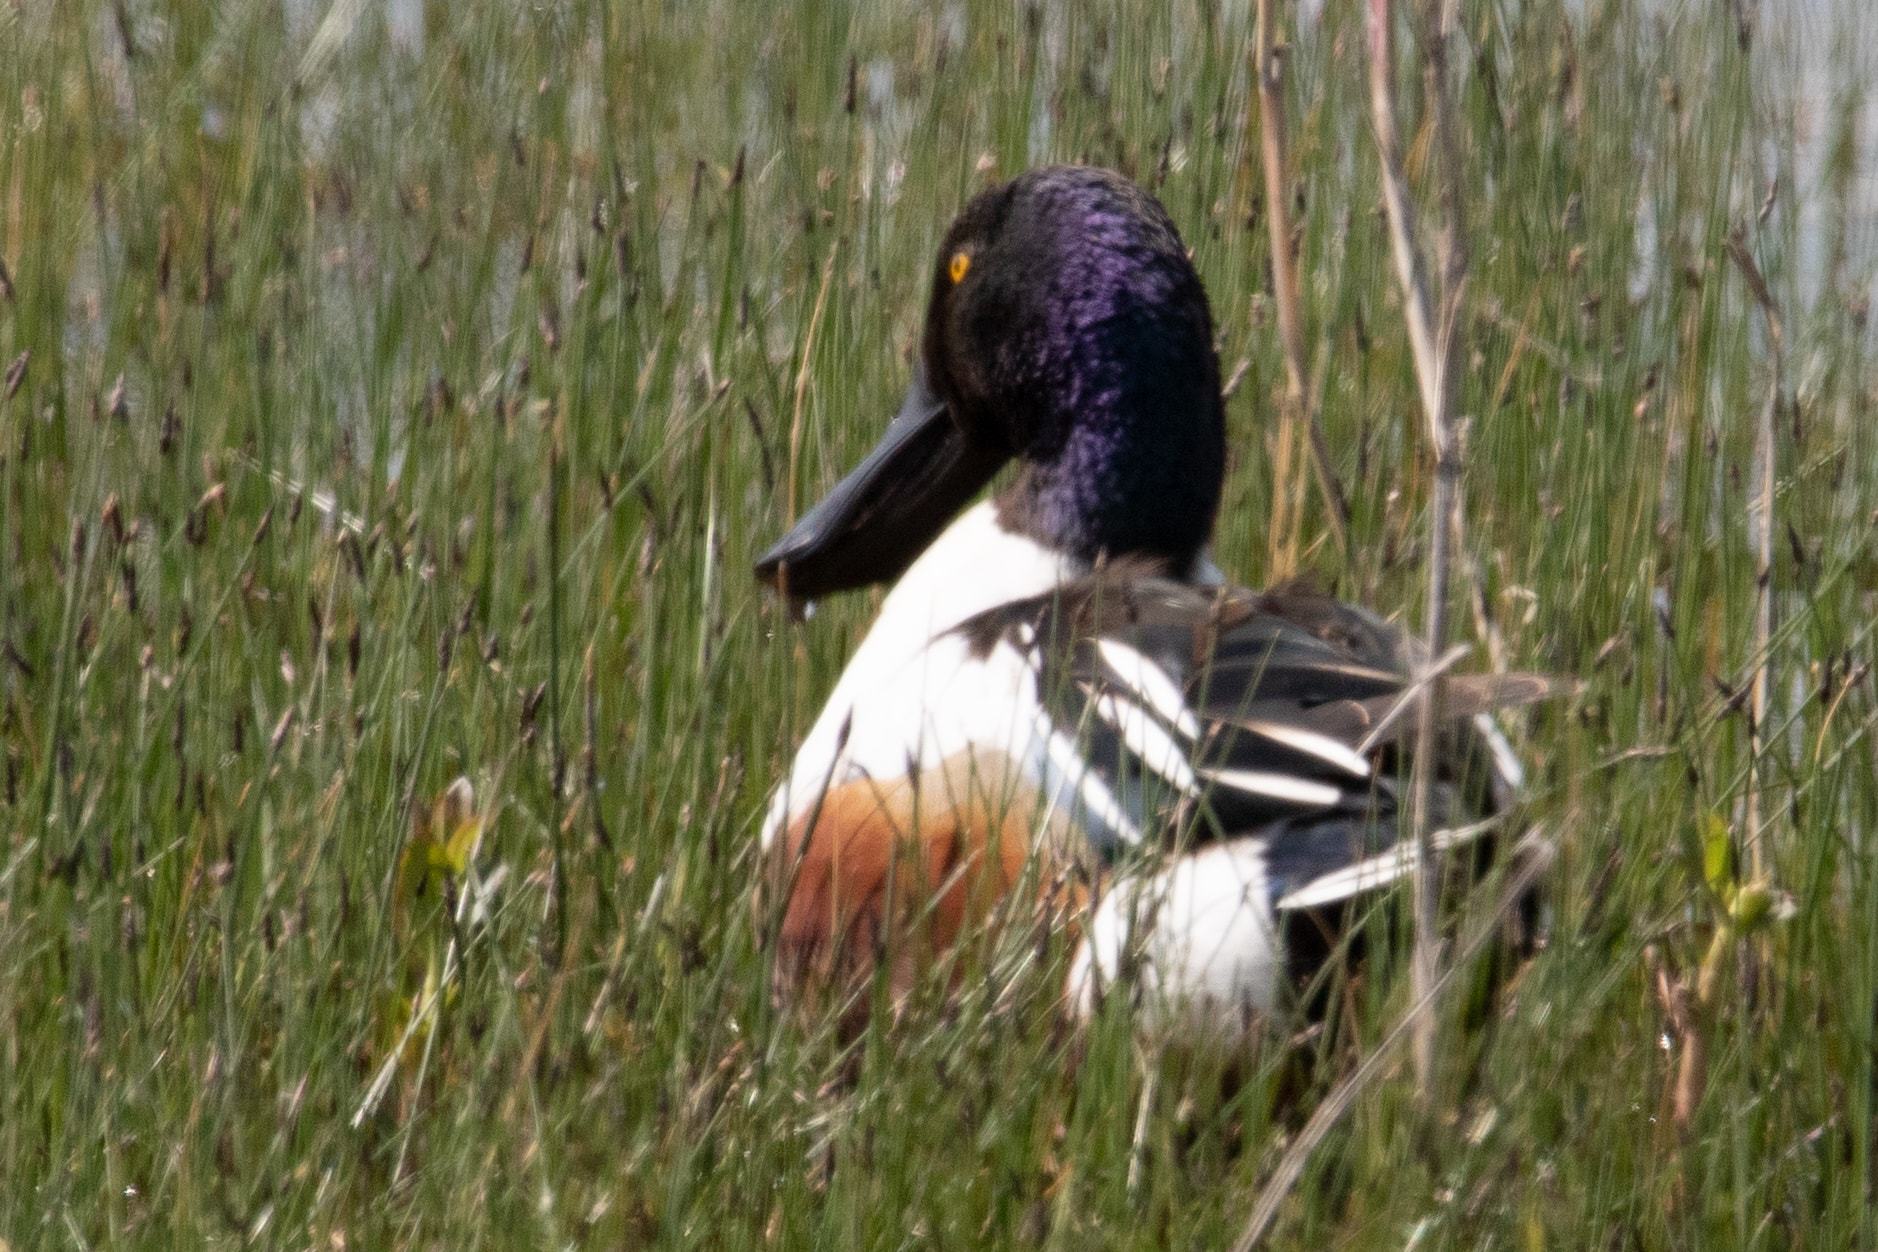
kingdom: Animalia
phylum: Chordata
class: Aves
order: Anseriformes
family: Anatidae
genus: Spatula
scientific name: Spatula clypeata
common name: Northern shoveler
